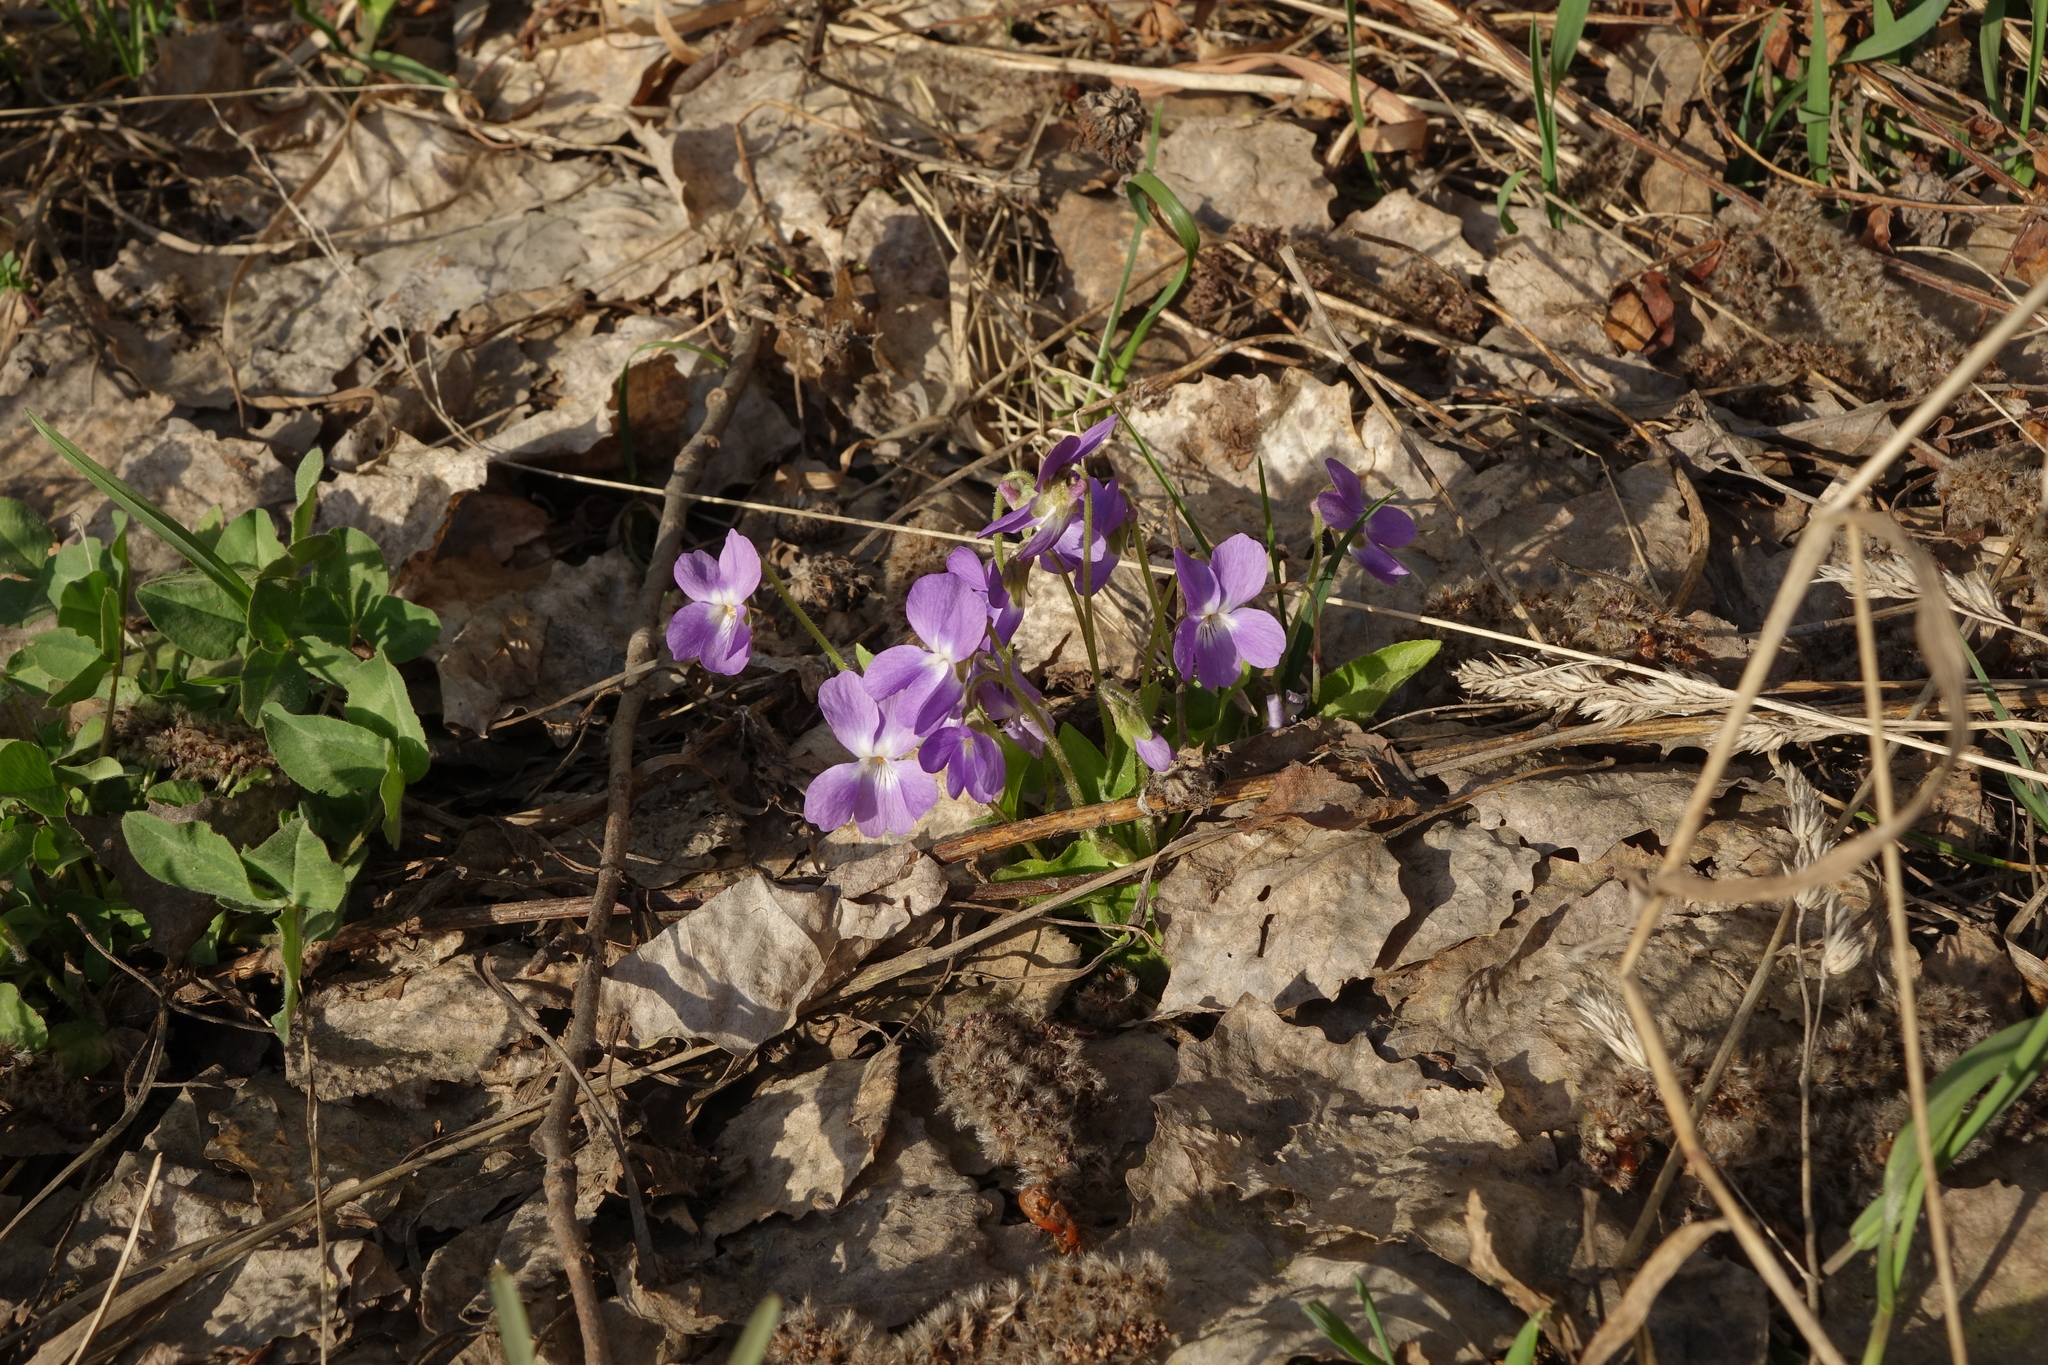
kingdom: Plantae
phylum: Tracheophyta
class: Magnoliopsida
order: Malpighiales
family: Violaceae
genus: Viola
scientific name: Viola hirta
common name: Hairy violet
